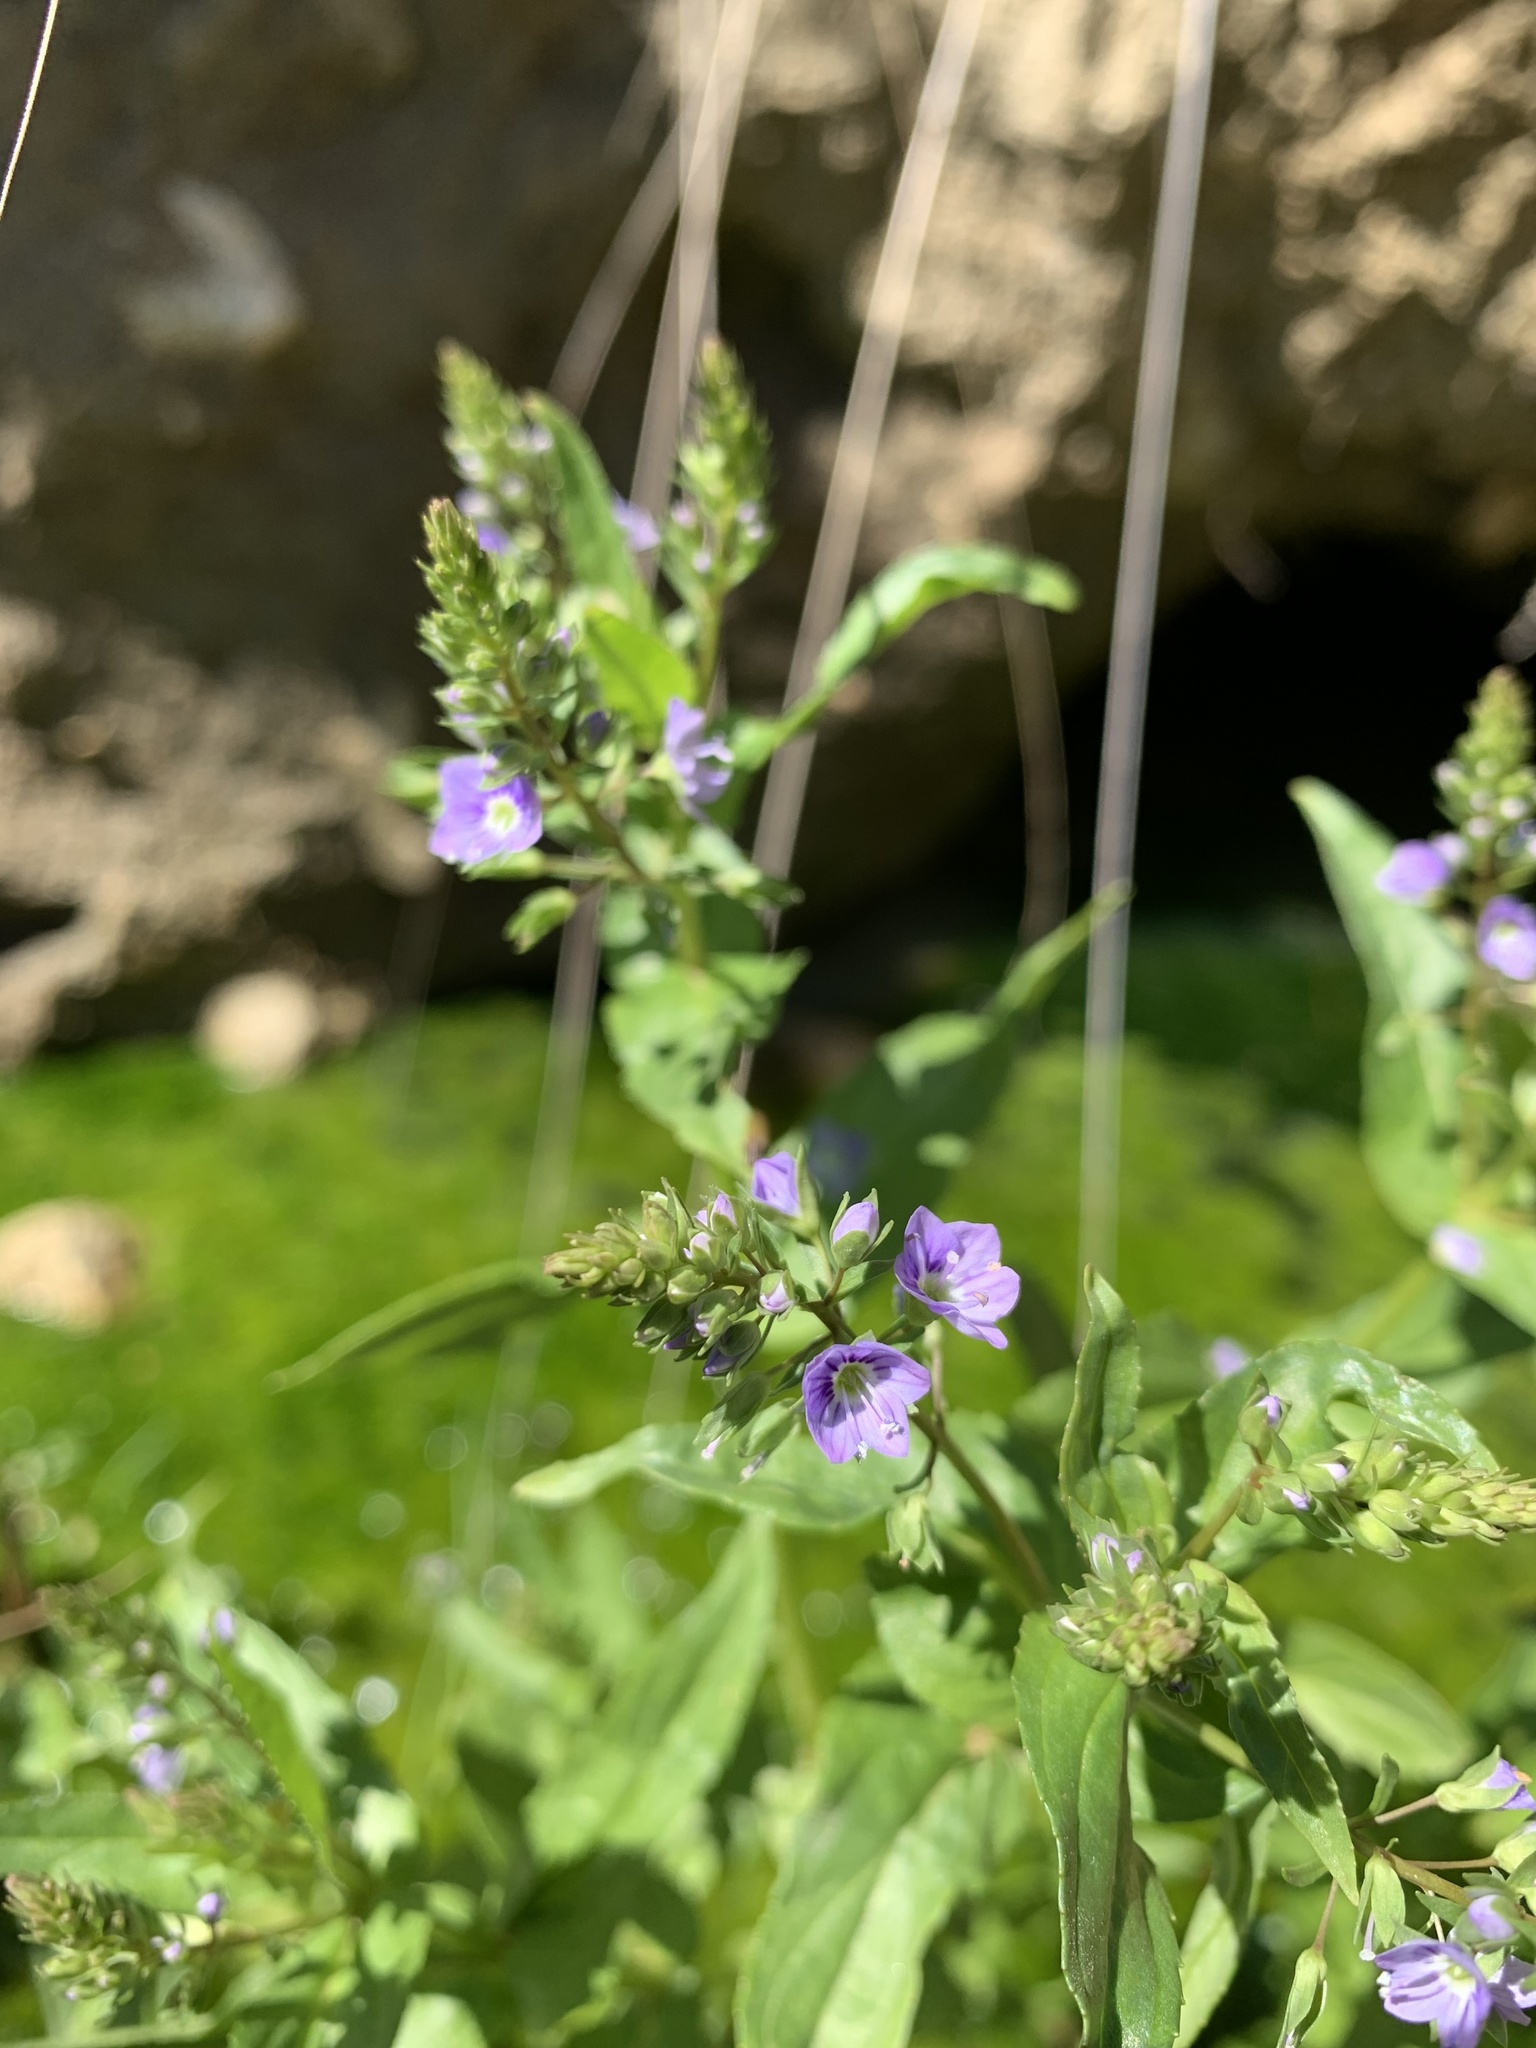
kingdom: Plantae
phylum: Tracheophyta
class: Magnoliopsida
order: Lamiales
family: Plantaginaceae
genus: Veronica
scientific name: Veronica anagallis-aquatica
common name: Water speedwell
